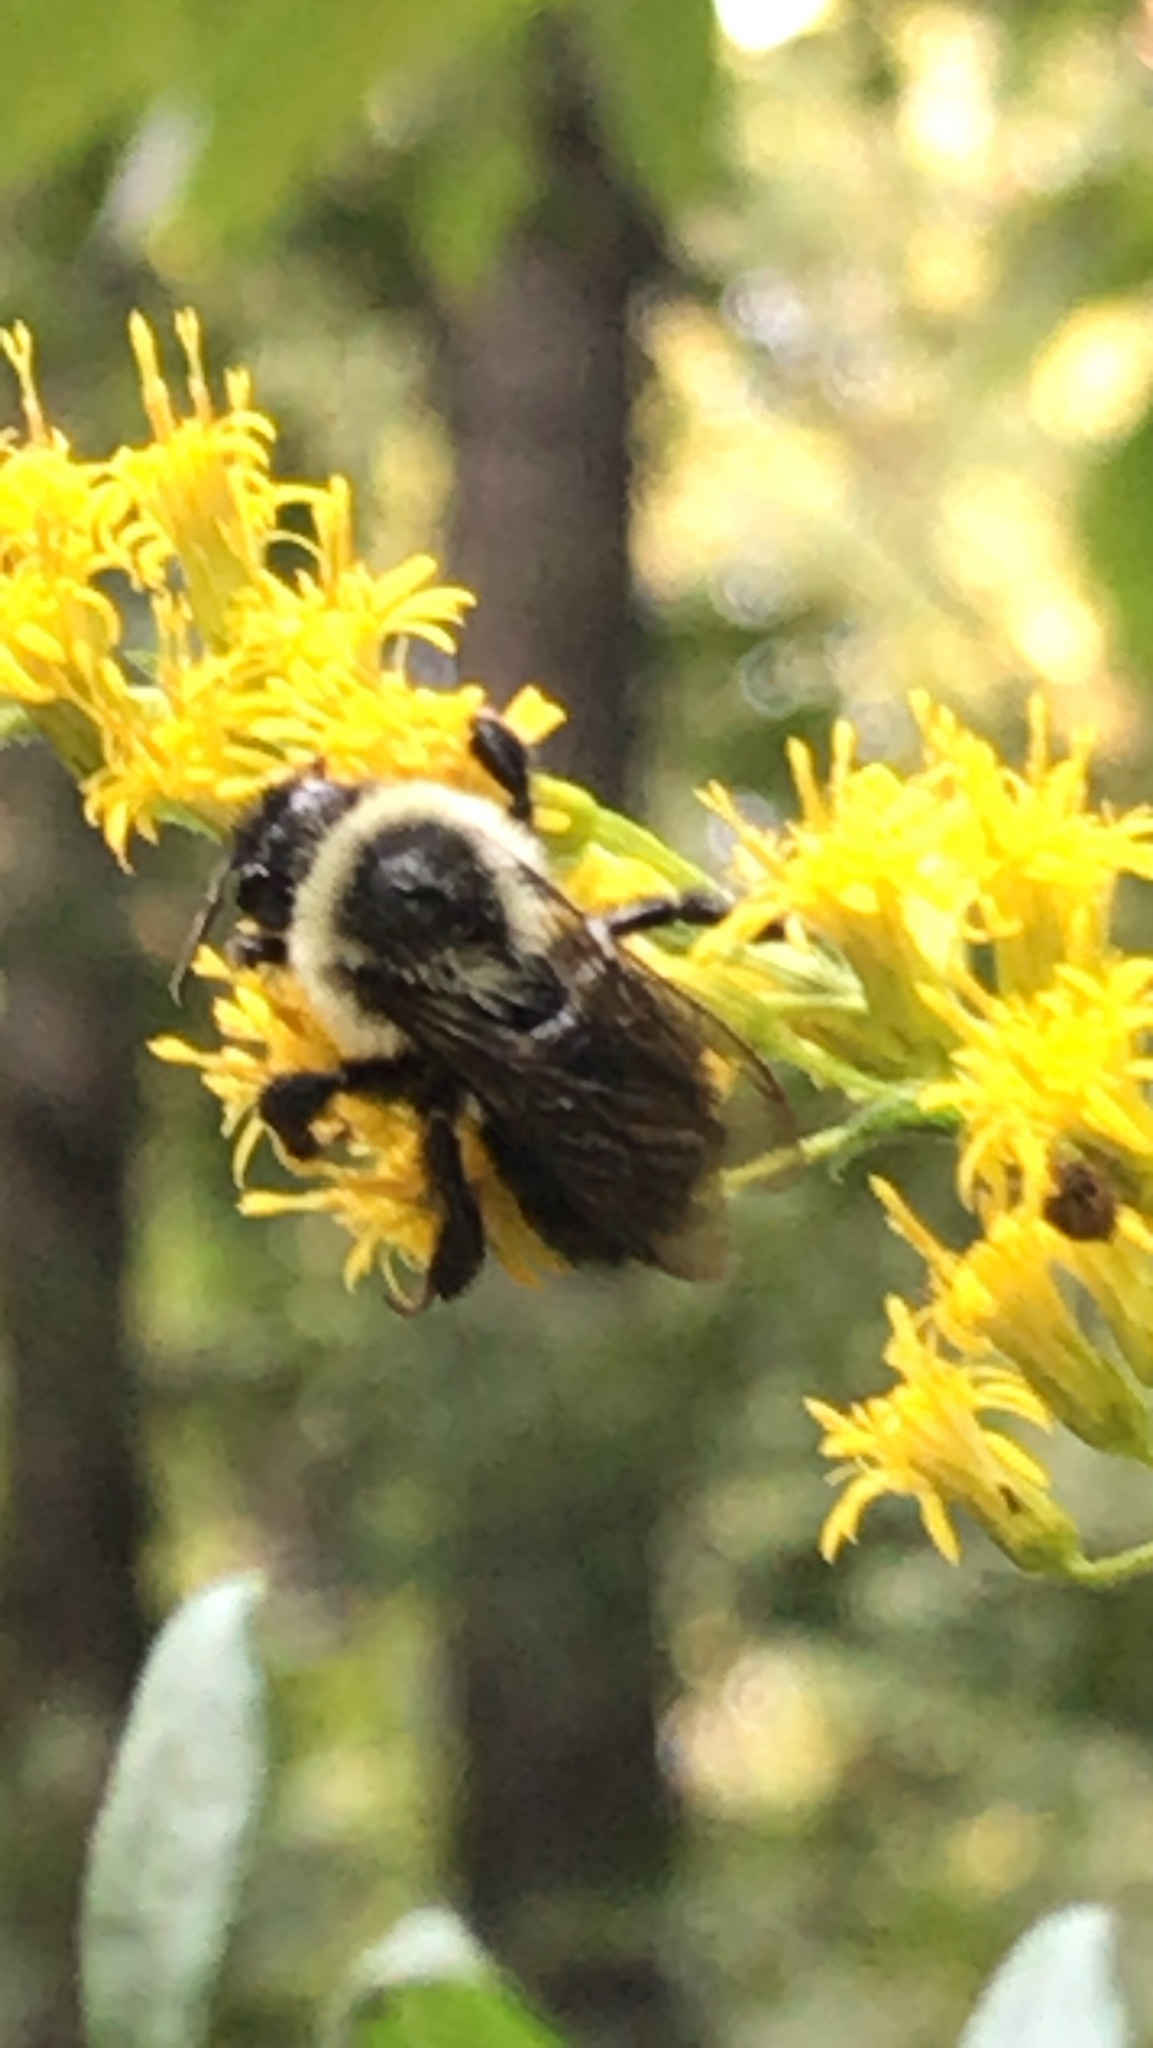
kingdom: Animalia
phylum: Arthropoda
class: Insecta
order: Hymenoptera
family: Apidae
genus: Bombus
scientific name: Bombus impatiens
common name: Common eastern bumble bee
